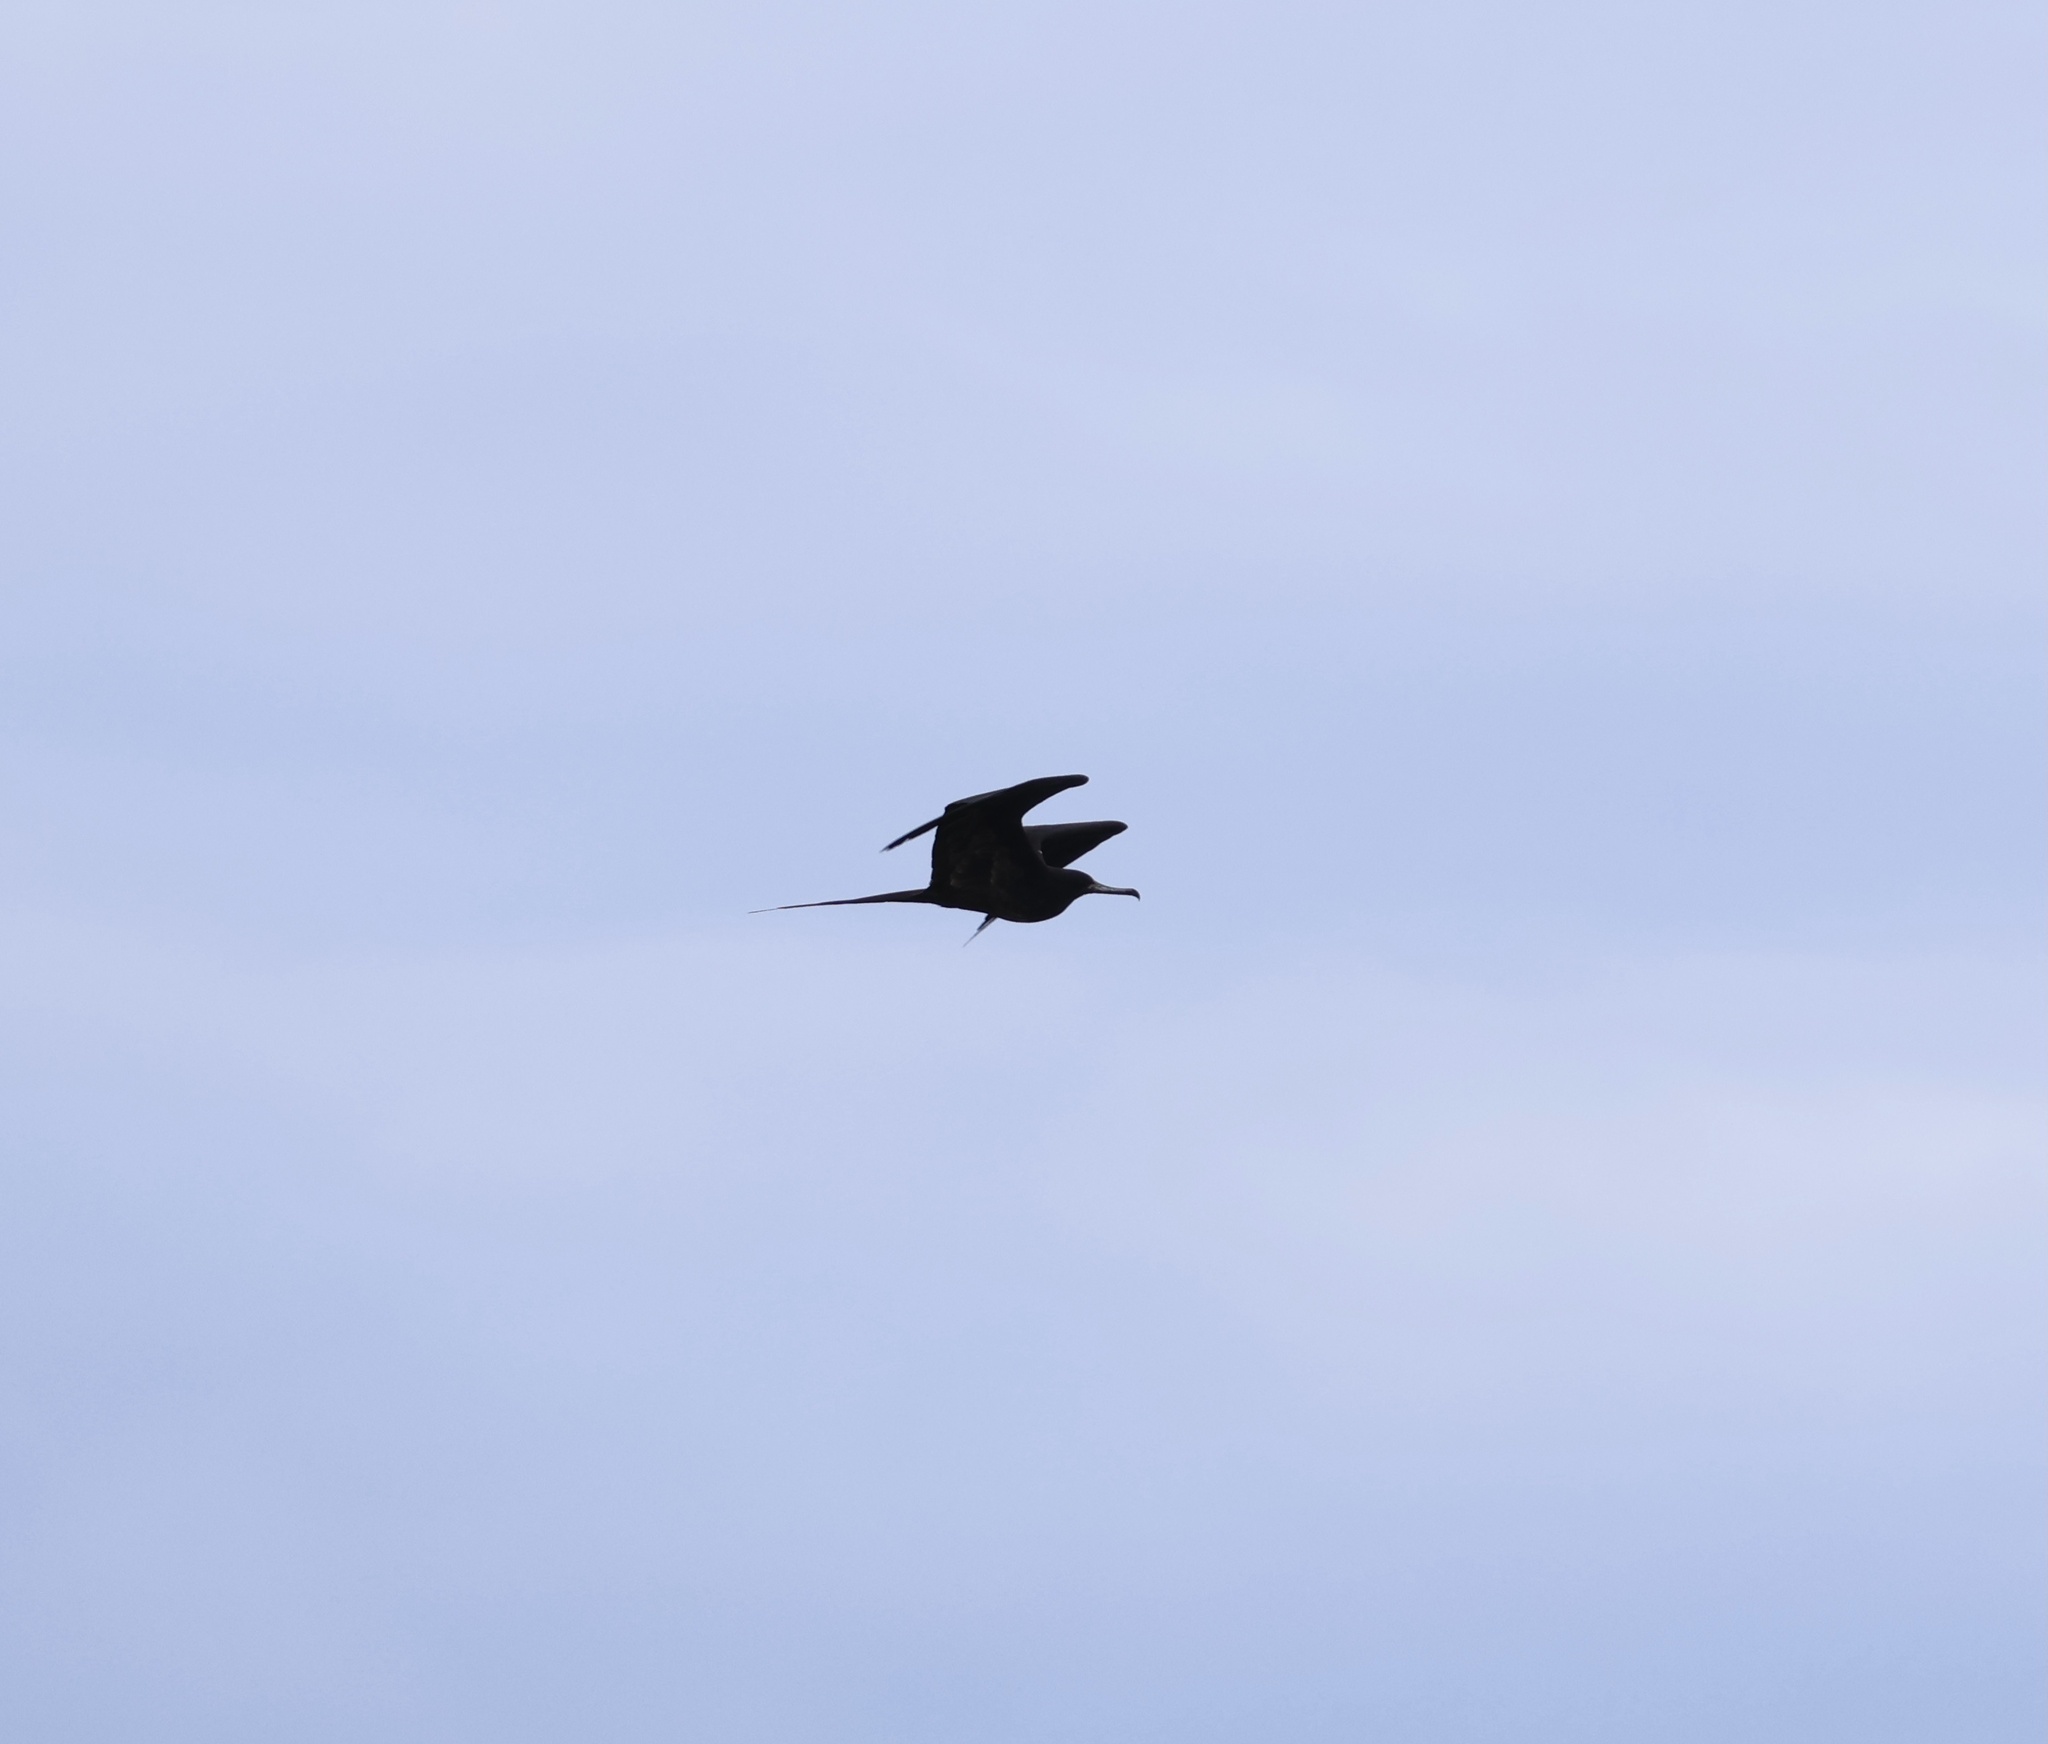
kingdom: Animalia
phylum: Chordata
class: Aves
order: Suliformes
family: Fregatidae
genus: Fregata
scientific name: Fregata magnificens
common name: Magnificent frigatebird
